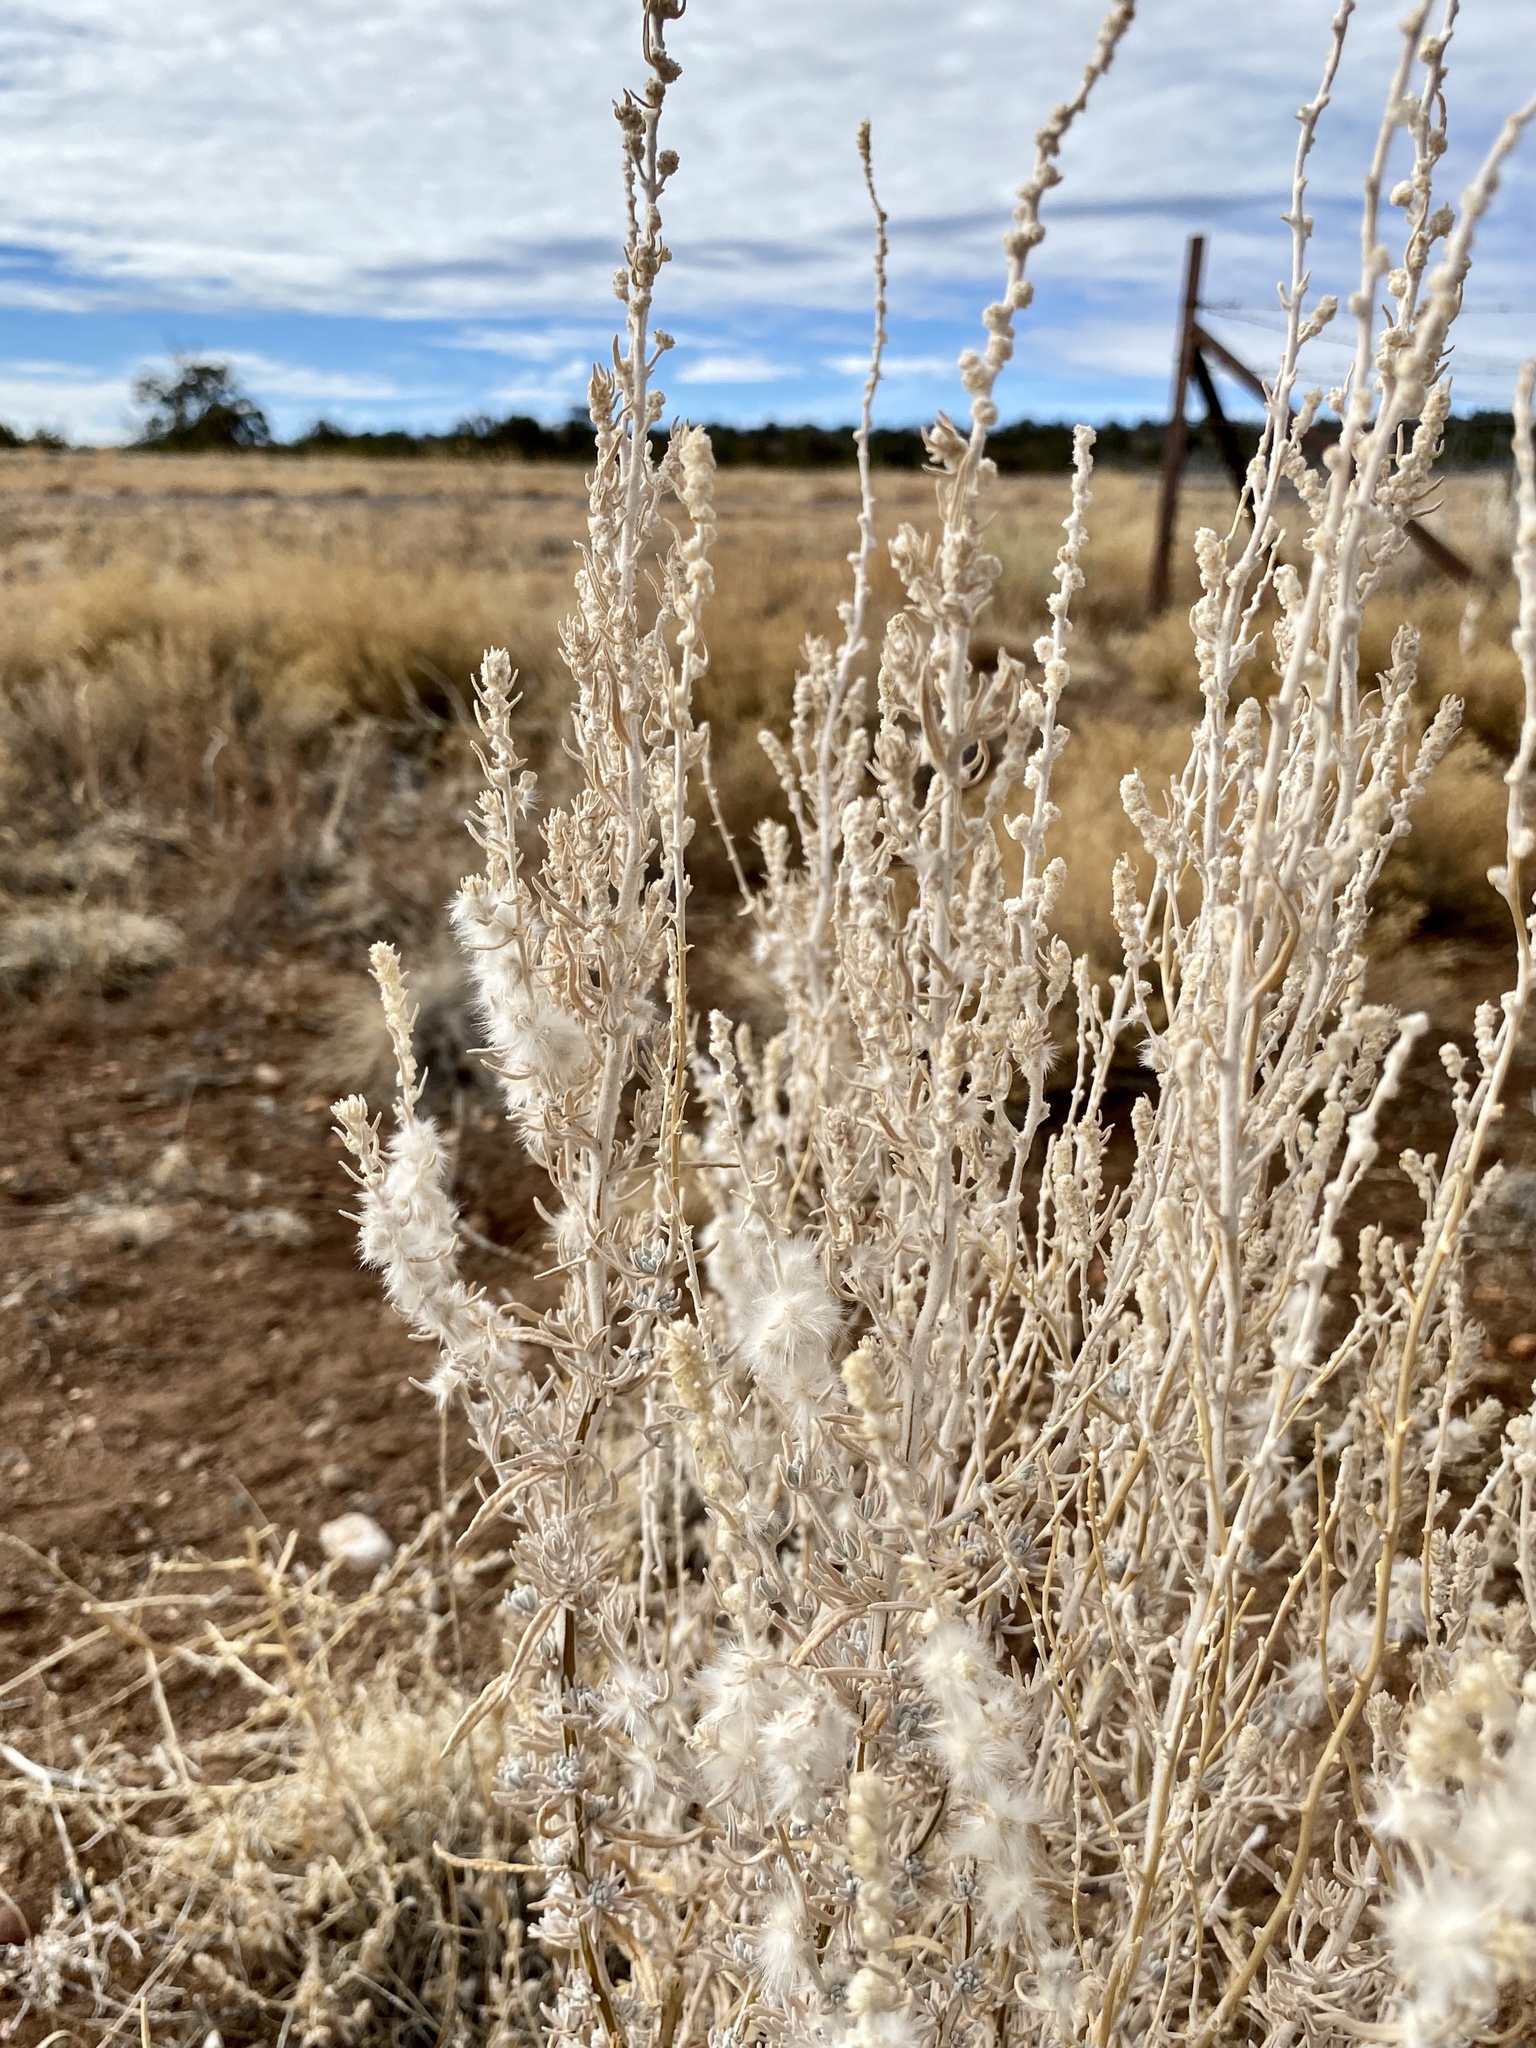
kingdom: Plantae
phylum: Tracheophyta
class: Magnoliopsida
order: Caryophyllales
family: Amaranthaceae
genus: Krascheninnikovia
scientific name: Krascheninnikovia lanata
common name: Winterfat
